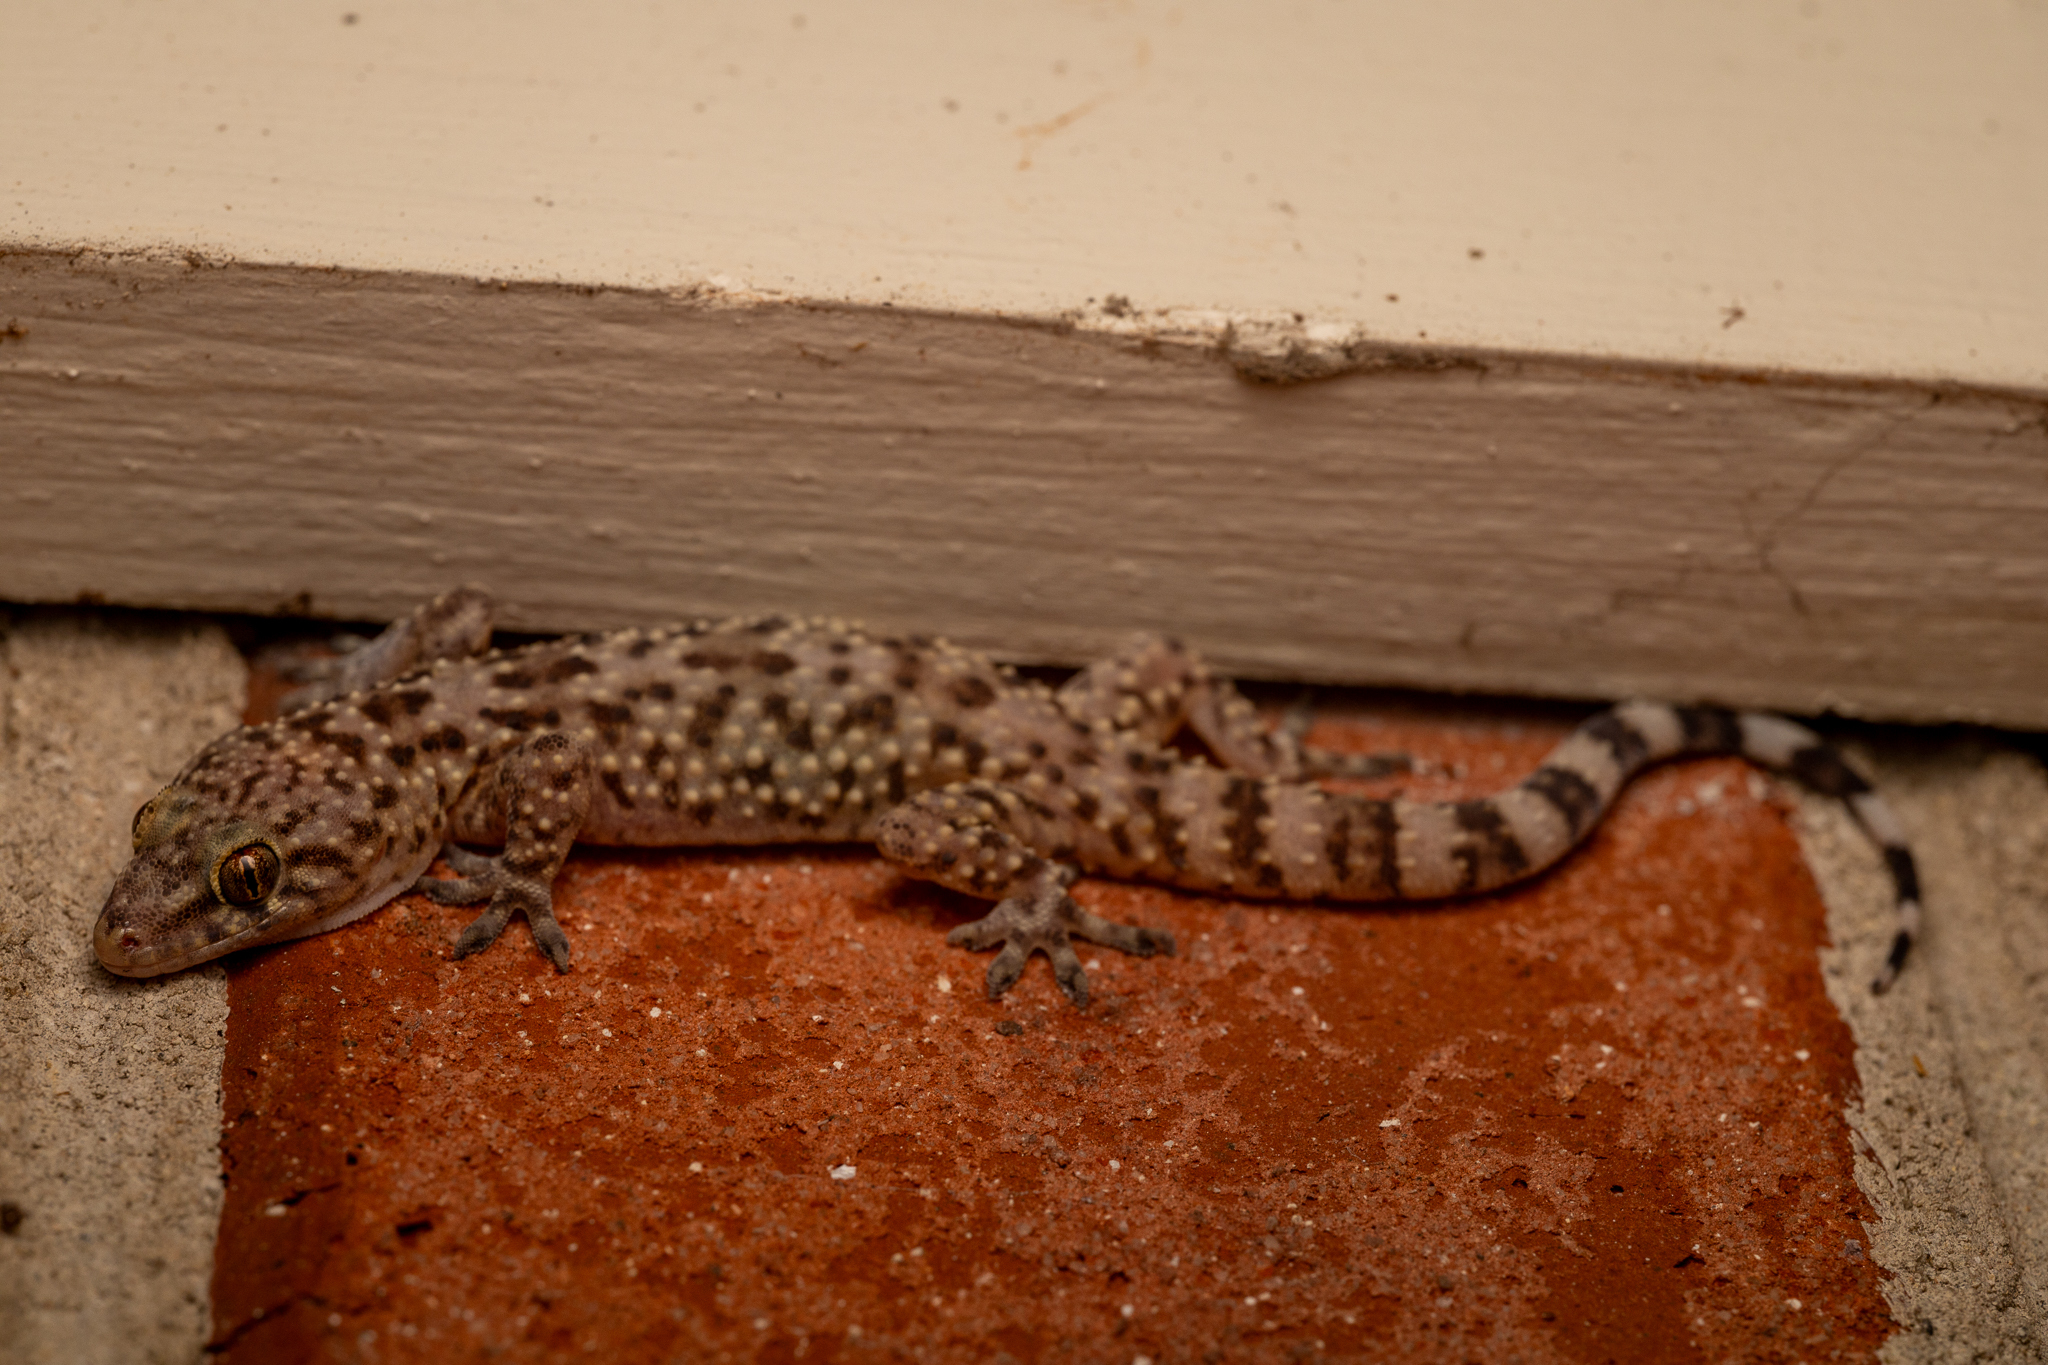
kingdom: Animalia
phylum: Chordata
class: Squamata
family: Gekkonidae
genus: Hemidactylus
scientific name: Hemidactylus turcicus
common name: Turkish gecko
